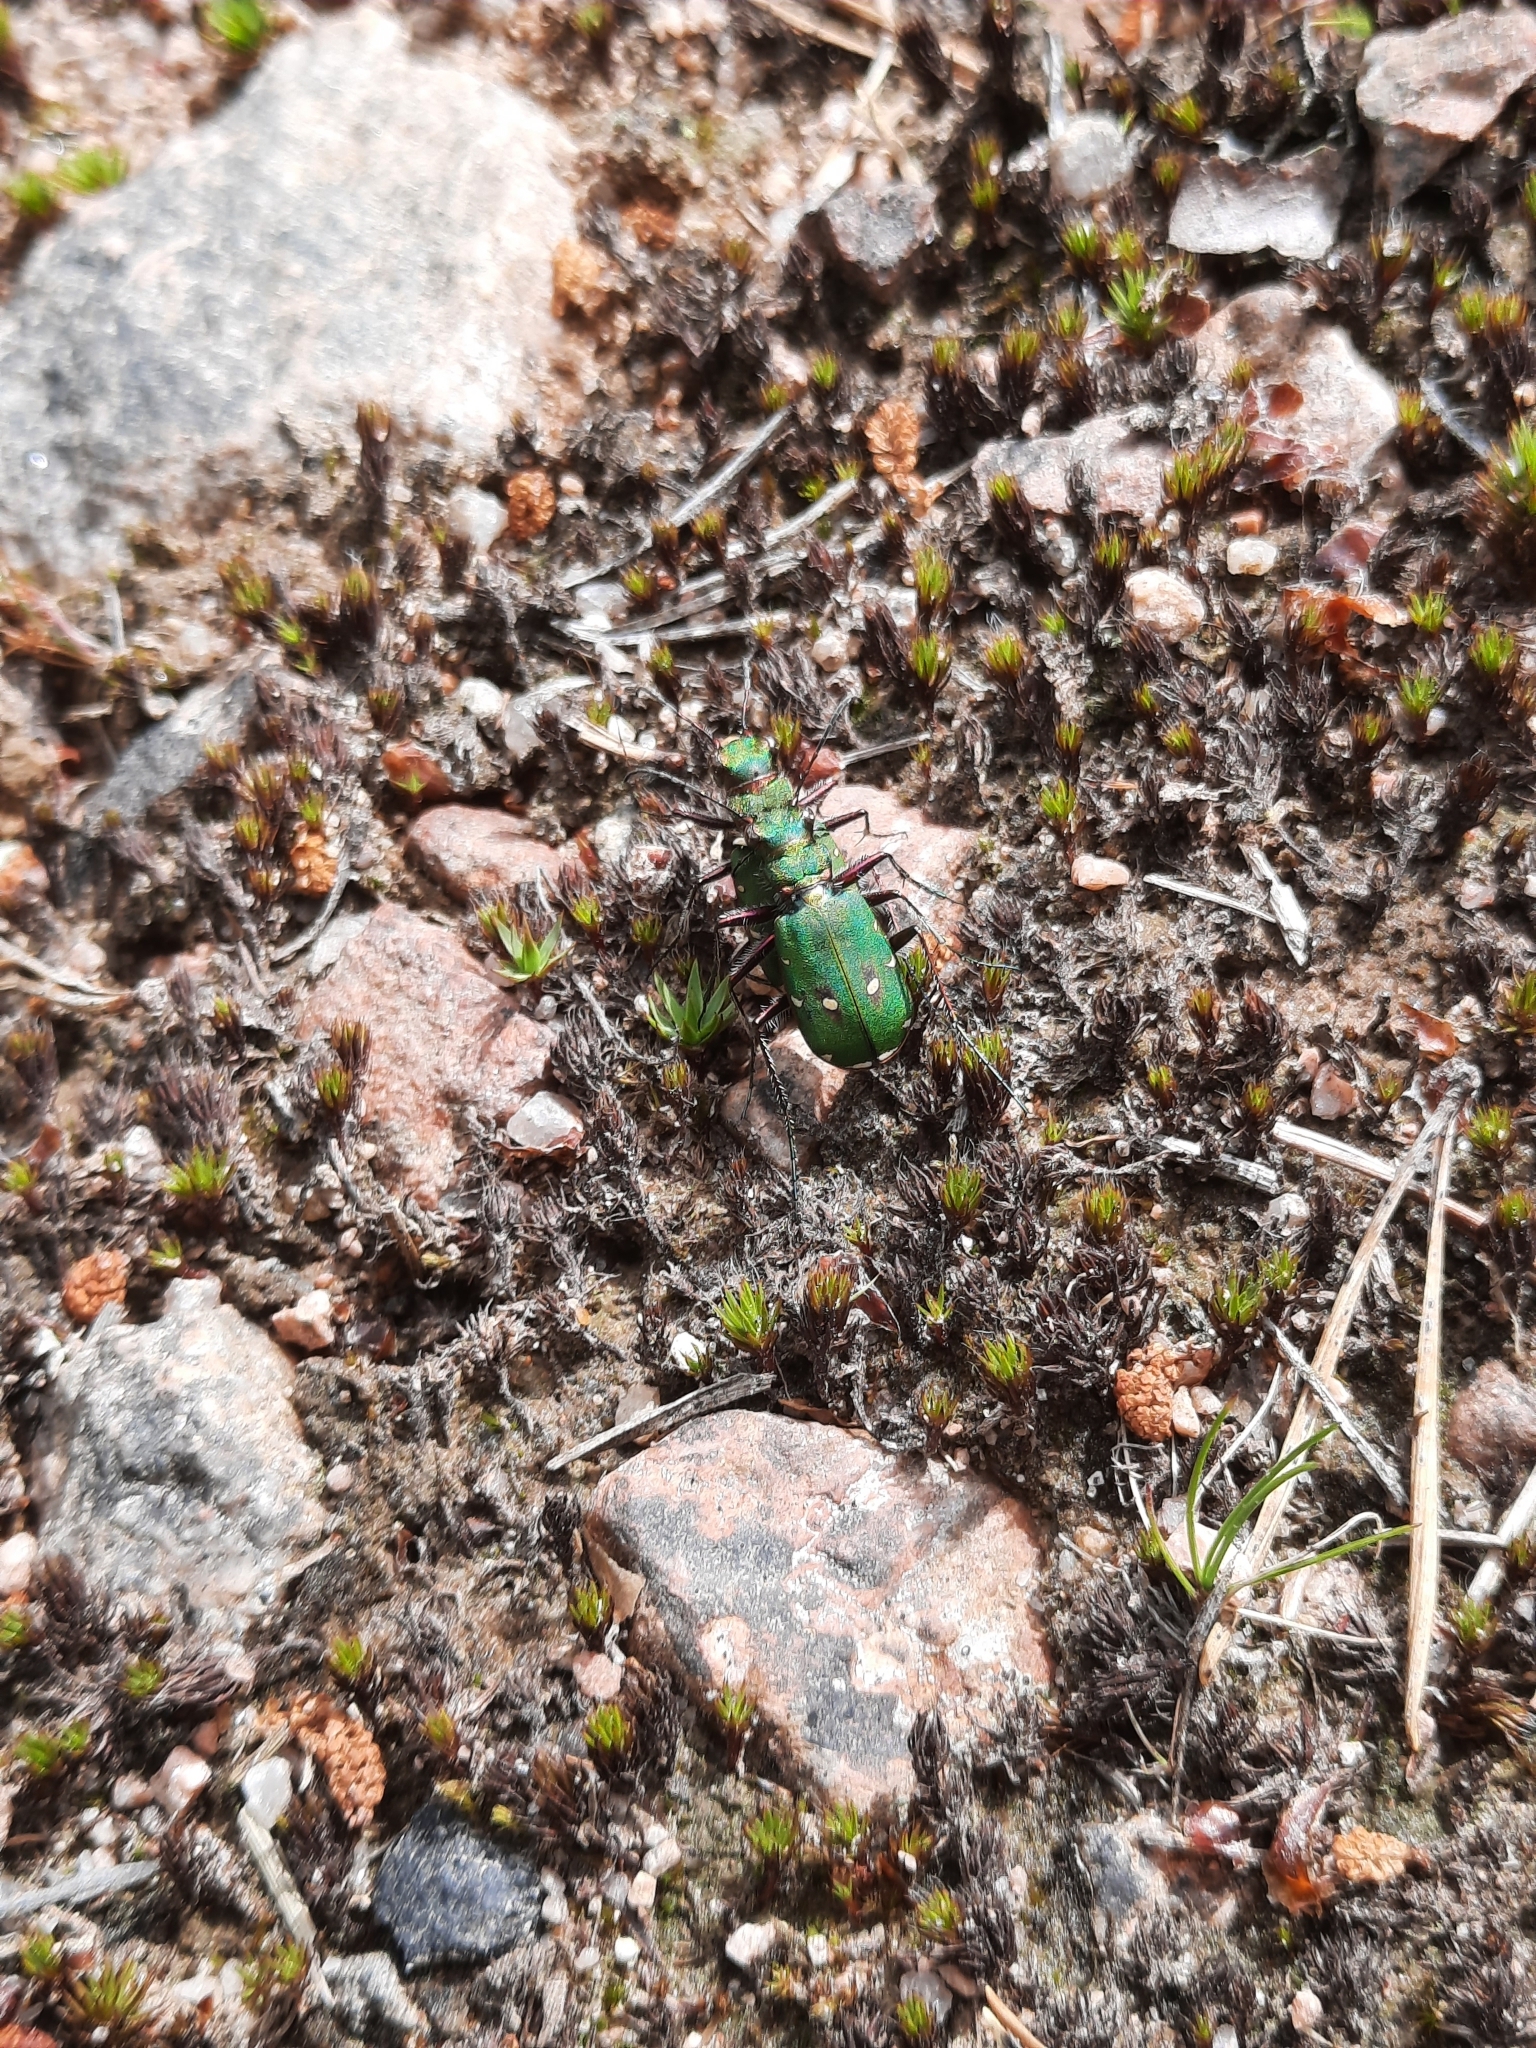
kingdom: Animalia
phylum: Arthropoda
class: Insecta
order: Coleoptera
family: Carabidae
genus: Cicindela
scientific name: Cicindela campestris
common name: Common tiger beetle
